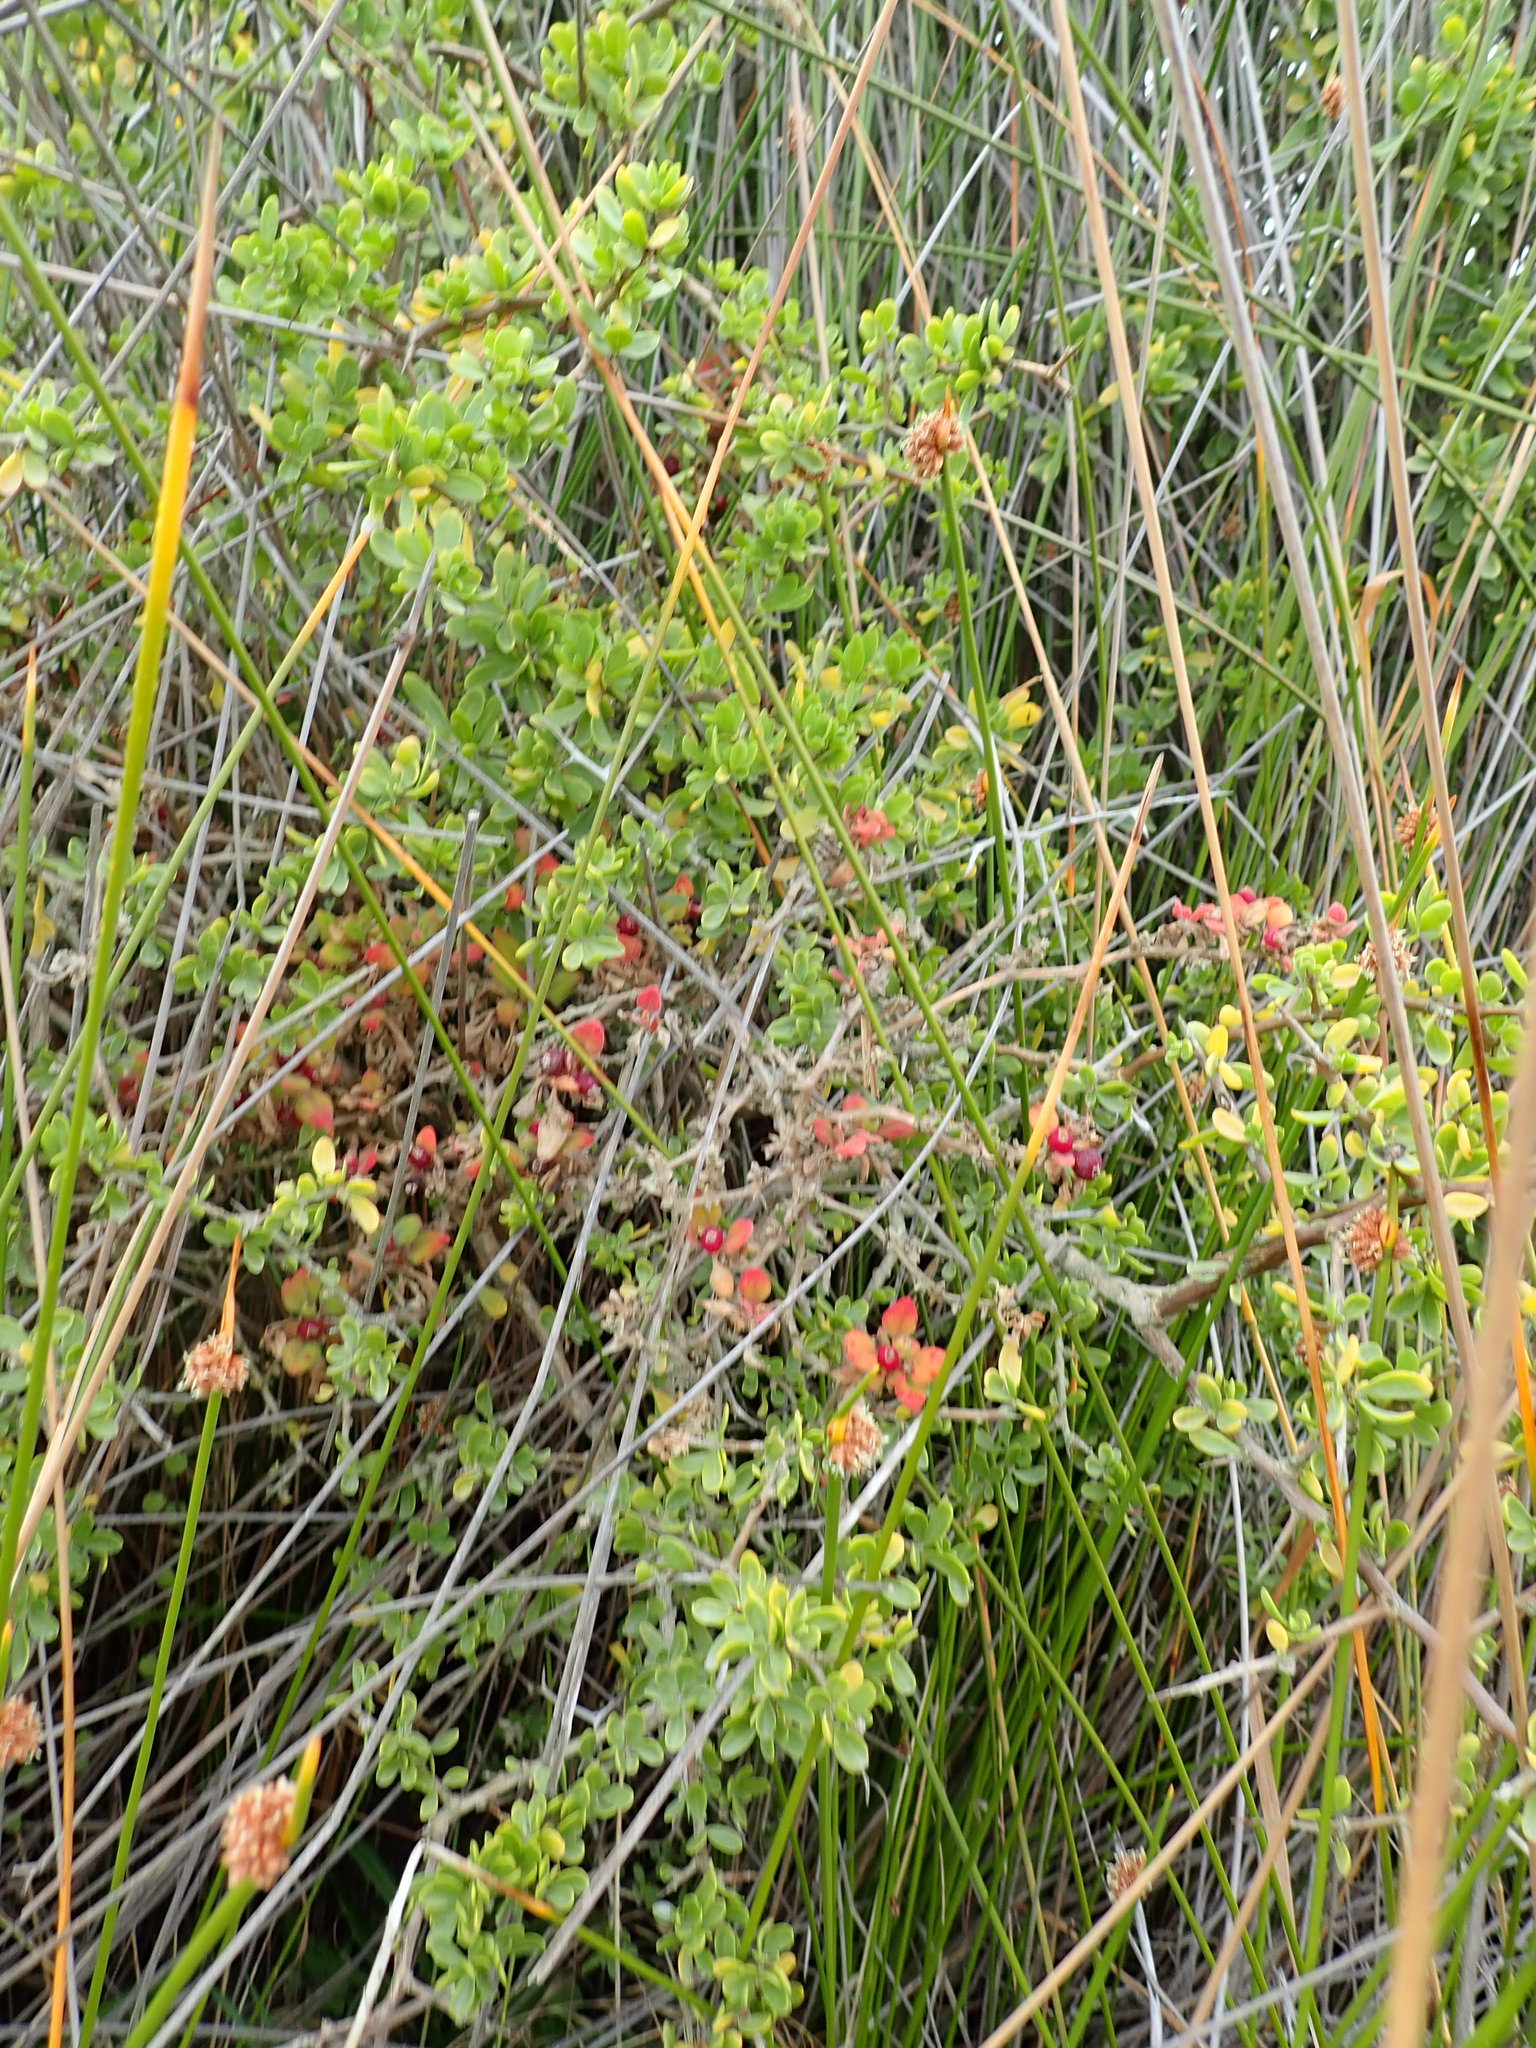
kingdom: Plantae
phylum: Tracheophyta
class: Magnoliopsida
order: Solanales
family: Solanaceae
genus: Lycium
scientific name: Lycium ferocissimum
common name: African boxthorn
